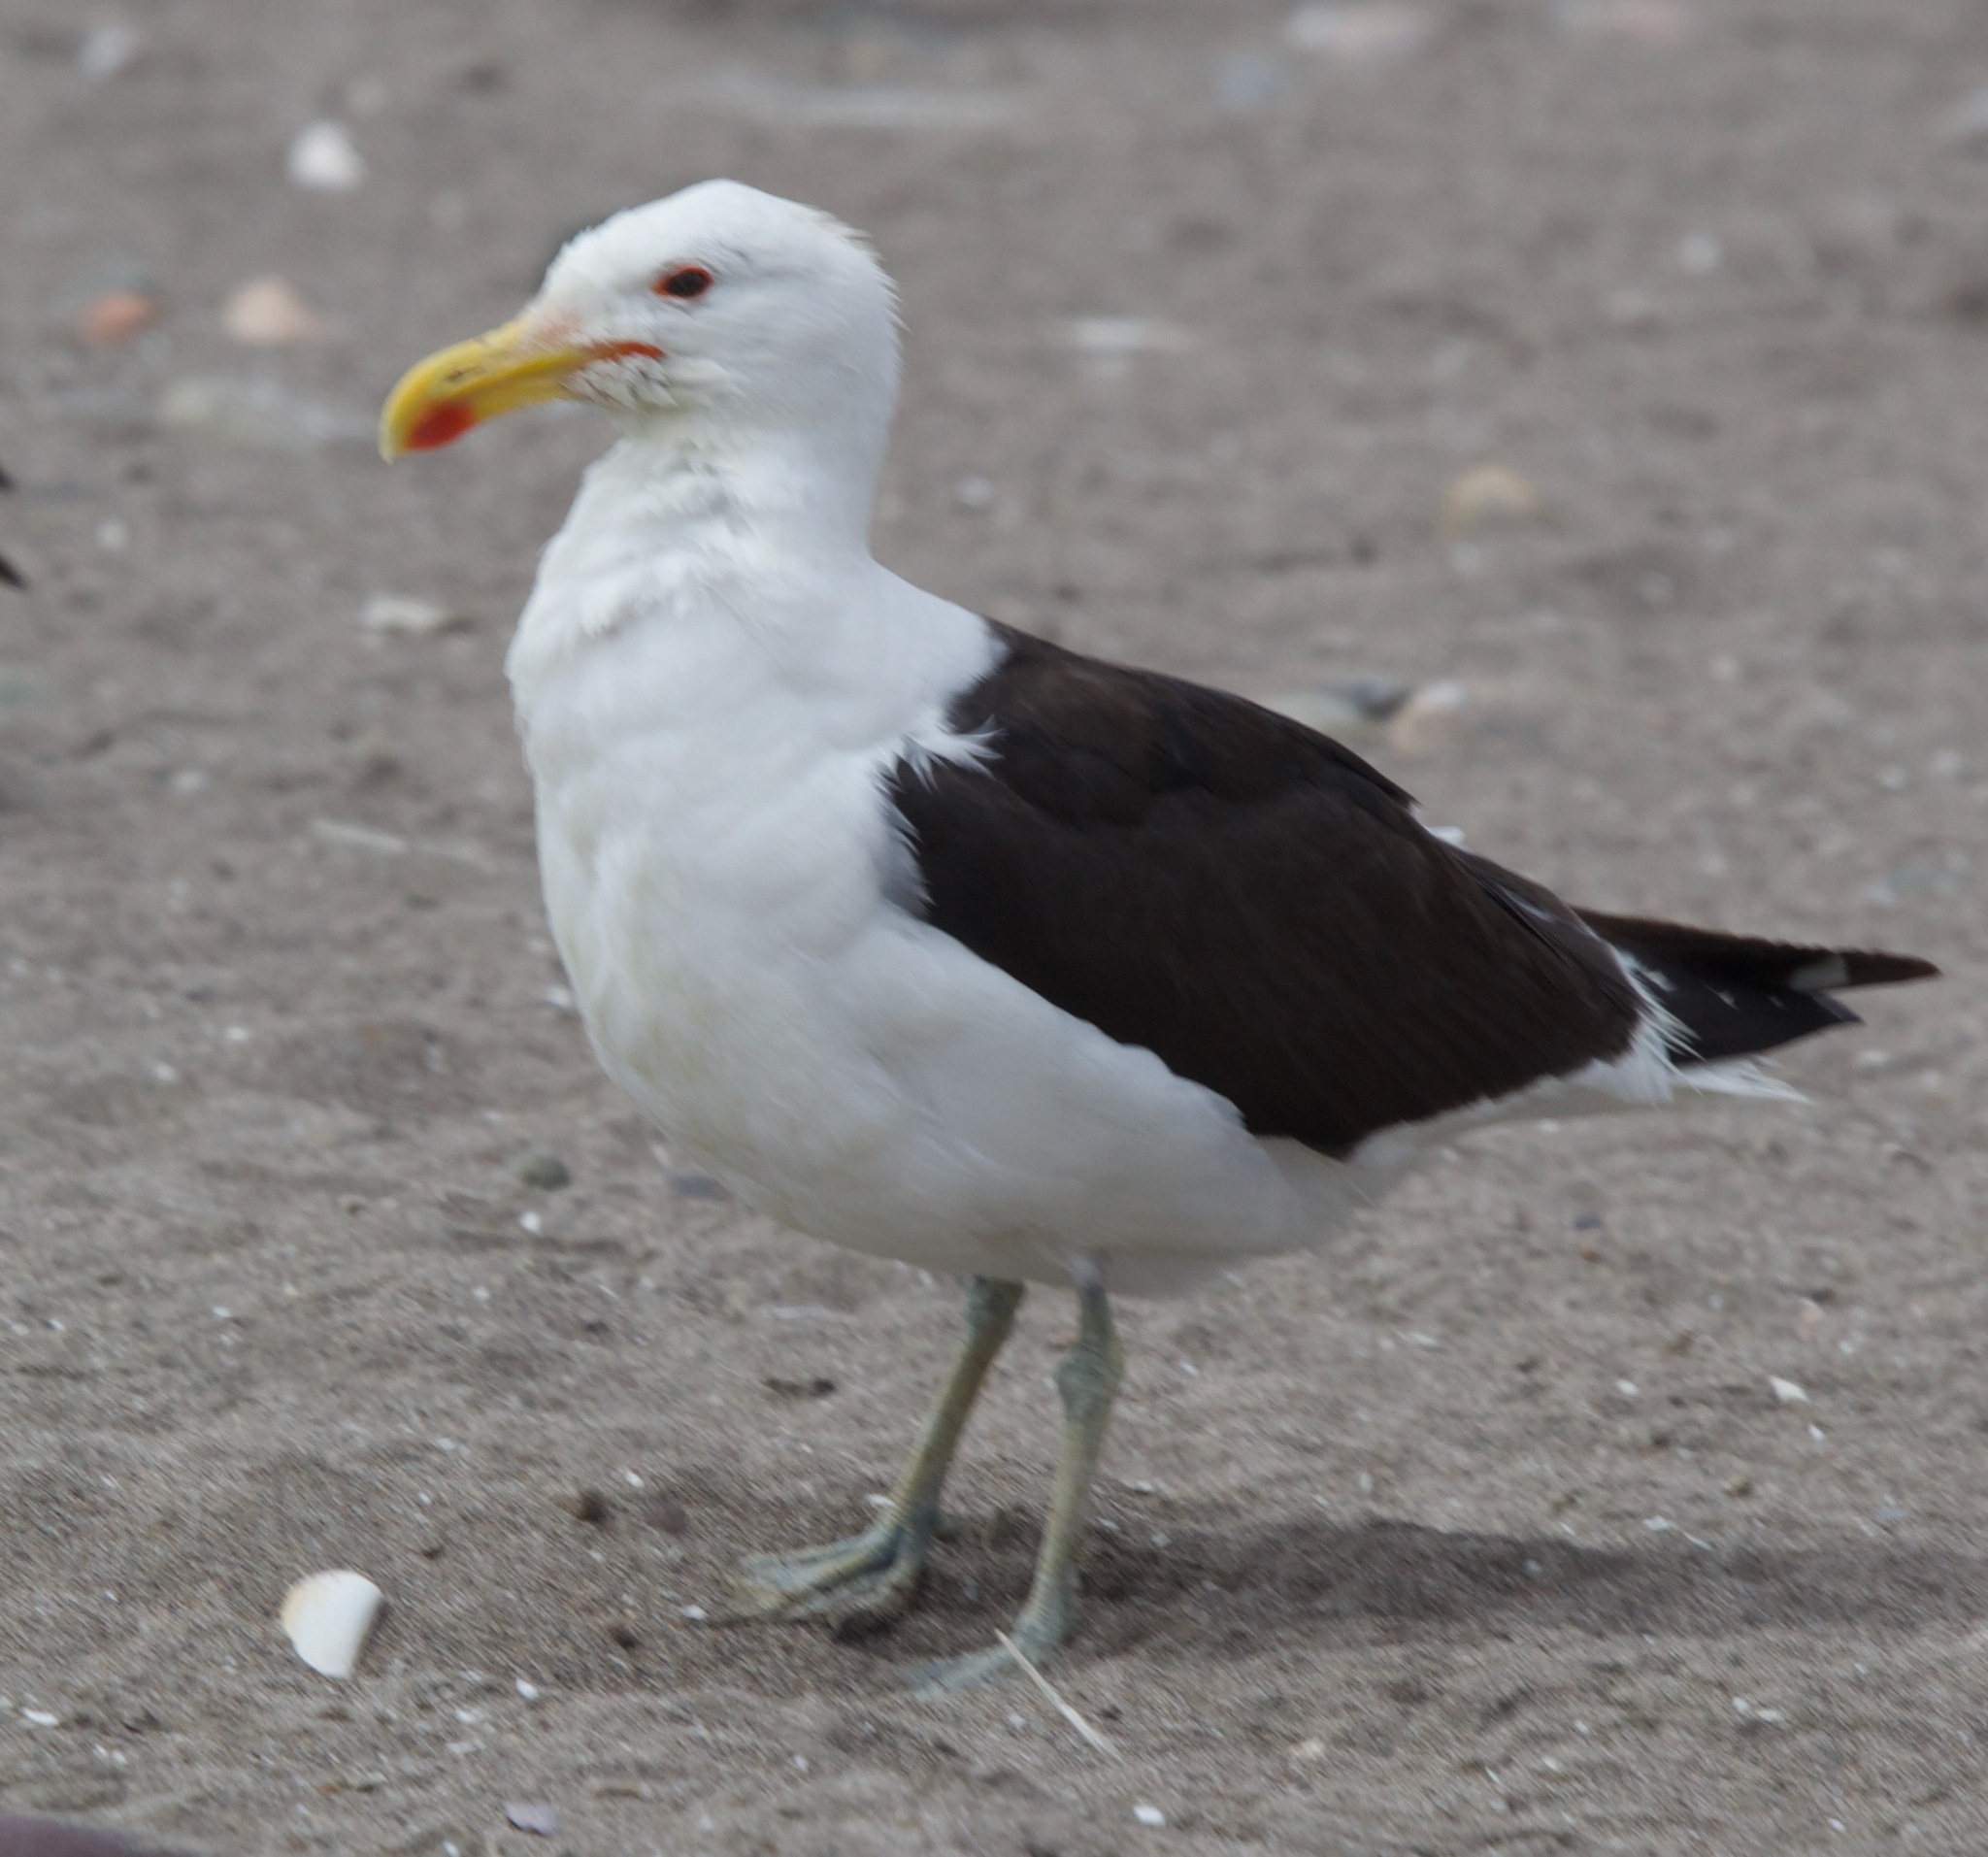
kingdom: Animalia
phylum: Chordata
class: Aves
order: Charadriiformes
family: Laridae
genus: Larus
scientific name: Larus dominicanus
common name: Kelp gull
